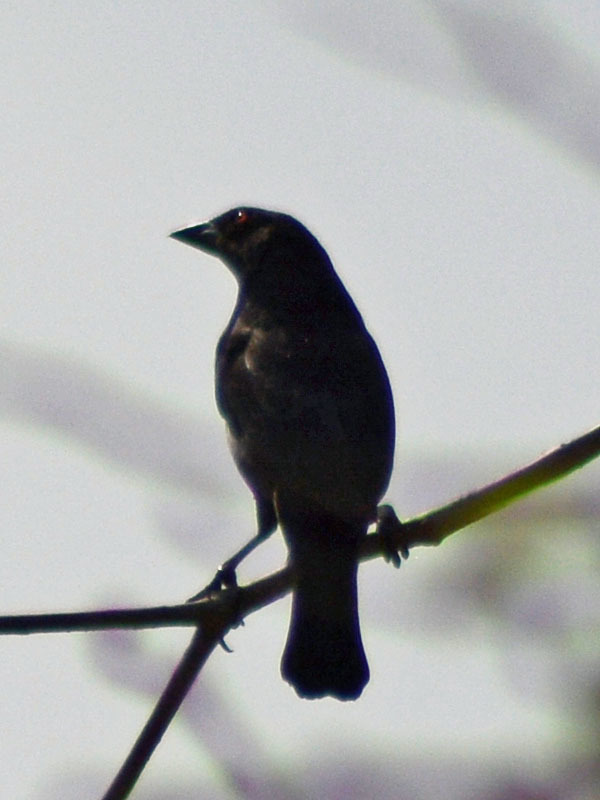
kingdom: Animalia
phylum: Chordata
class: Aves
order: Passeriformes
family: Icteridae
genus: Molothrus
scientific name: Molothrus aeneus
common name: Bronzed cowbird
